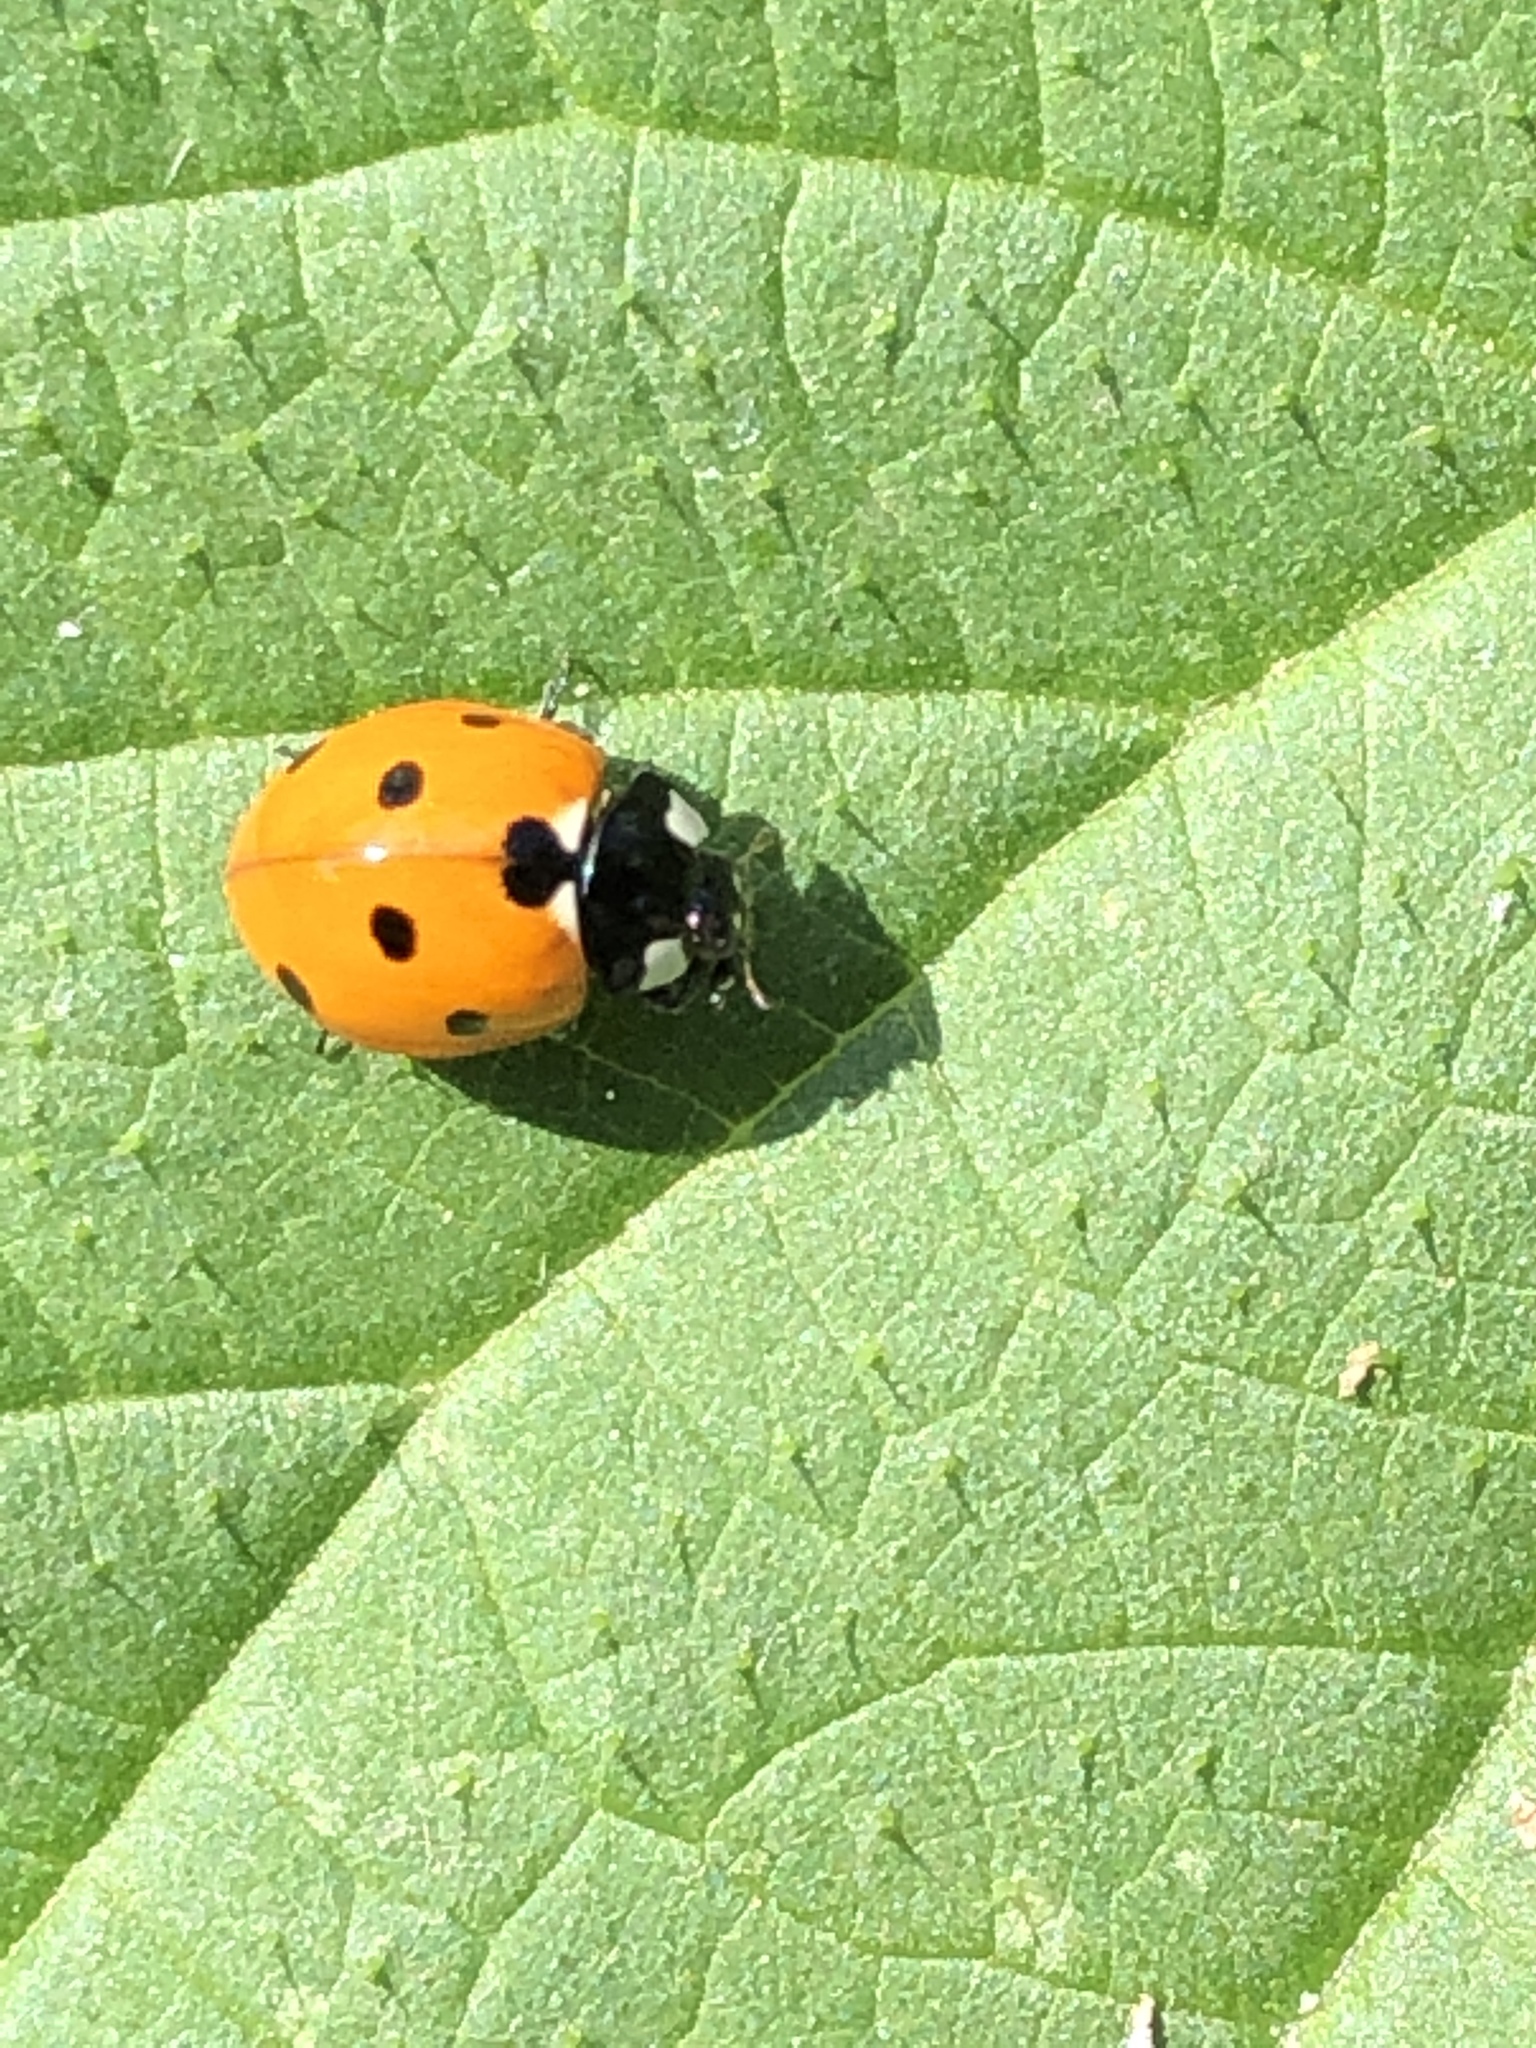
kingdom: Animalia
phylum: Arthropoda
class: Insecta
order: Coleoptera
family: Coccinellidae
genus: Coccinella
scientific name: Coccinella septempunctata
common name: Sevenspotted lady beetle
